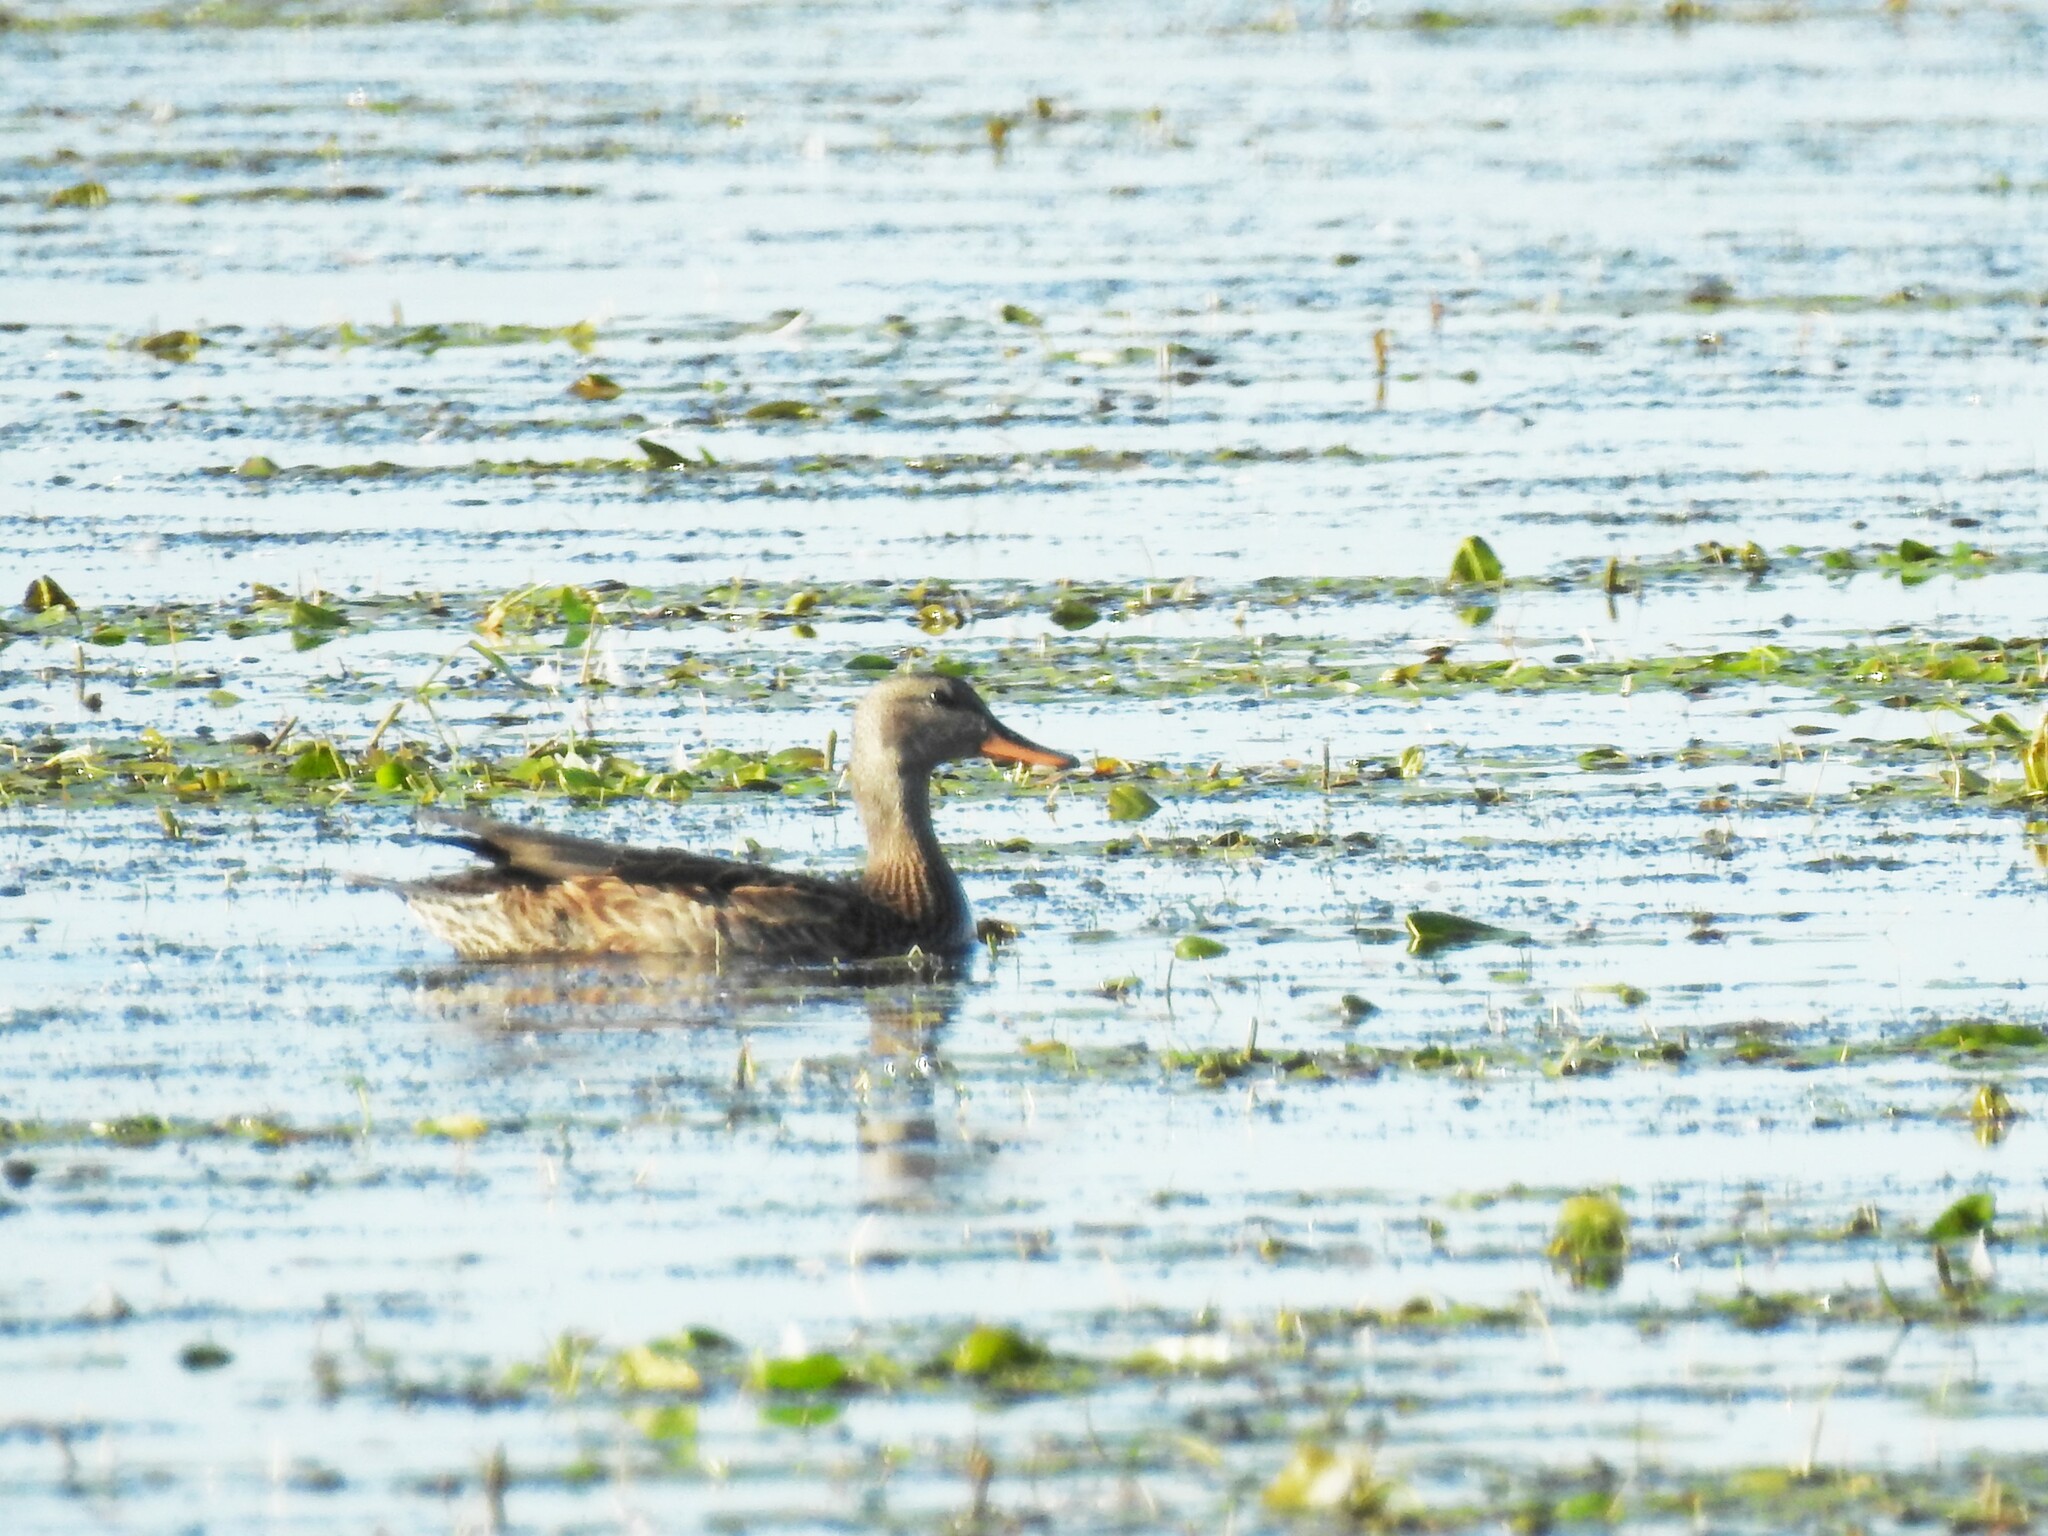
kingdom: Animalia
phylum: Chordata
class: Aves
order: Anseriformes
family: Anatidae
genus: Mareca
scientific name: Mareca strepera
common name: Gadwall
